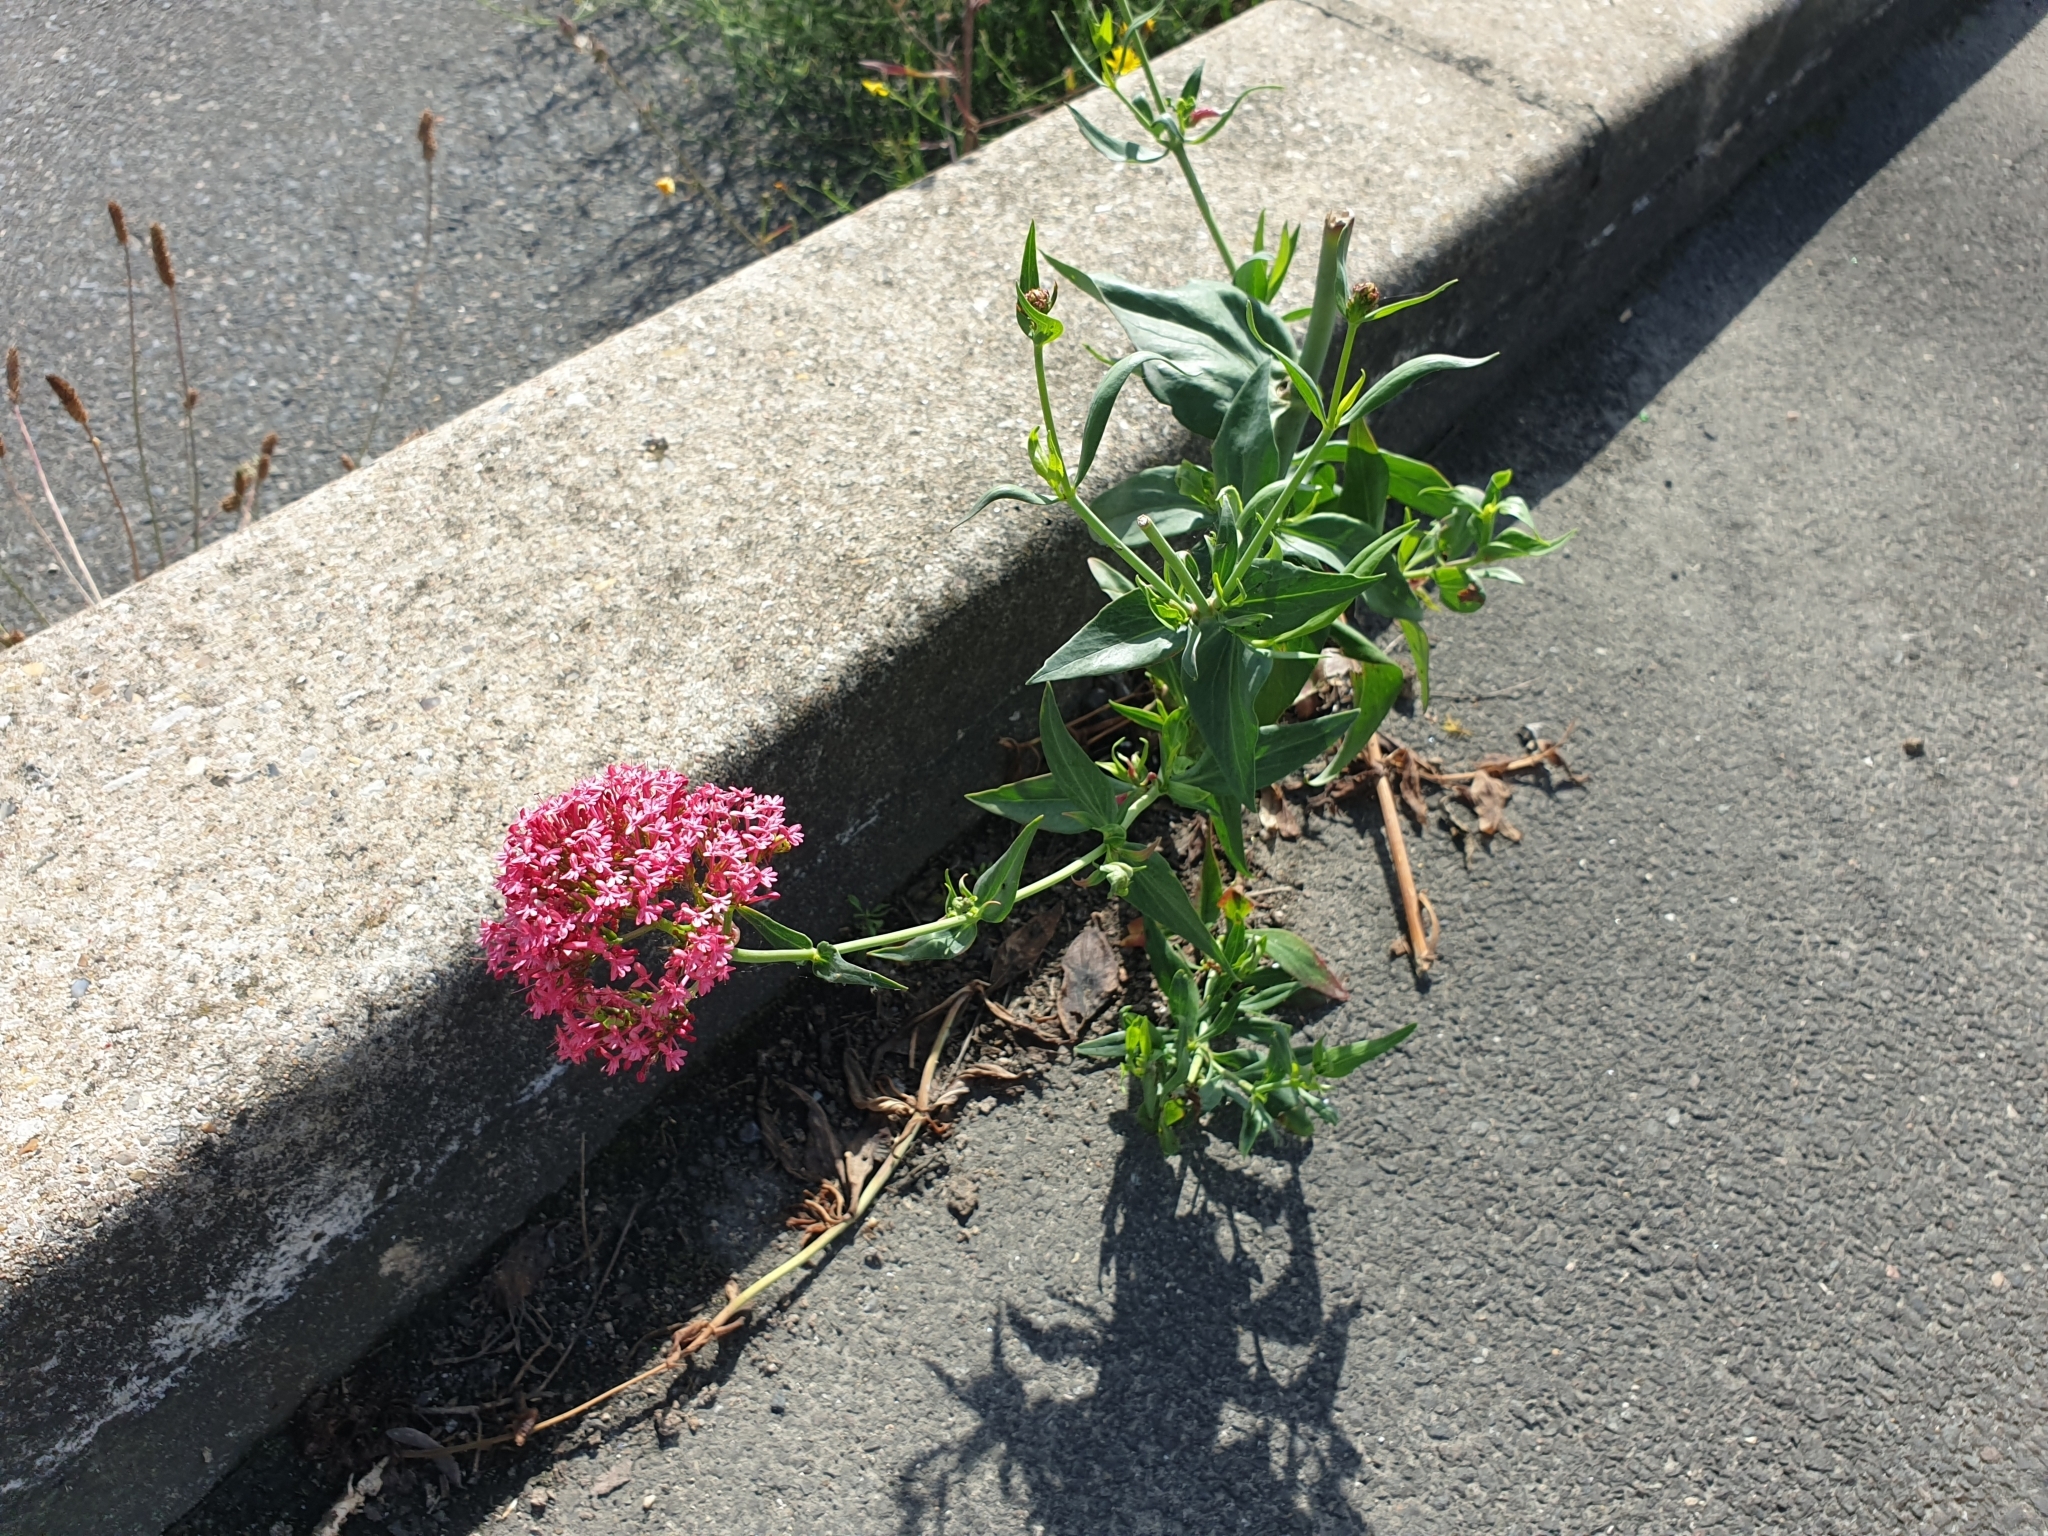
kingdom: Plantae
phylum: Tracheophyta
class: Magnoliopsida
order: Dipsacales
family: Caprifoliaceae
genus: Centranthus
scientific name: Centranthus ruber
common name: Red valerian
